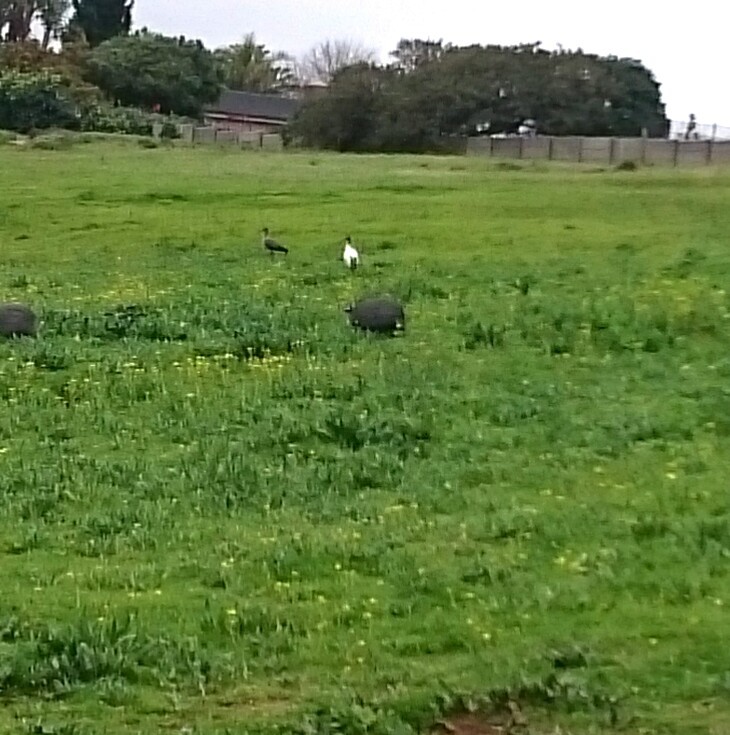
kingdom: Animalia
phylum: Chordata
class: Aves
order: Pelecaniformes
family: Threskiornithidae
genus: Threskiornis
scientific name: Threskiornis aethiopicus
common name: Sacred ibis
